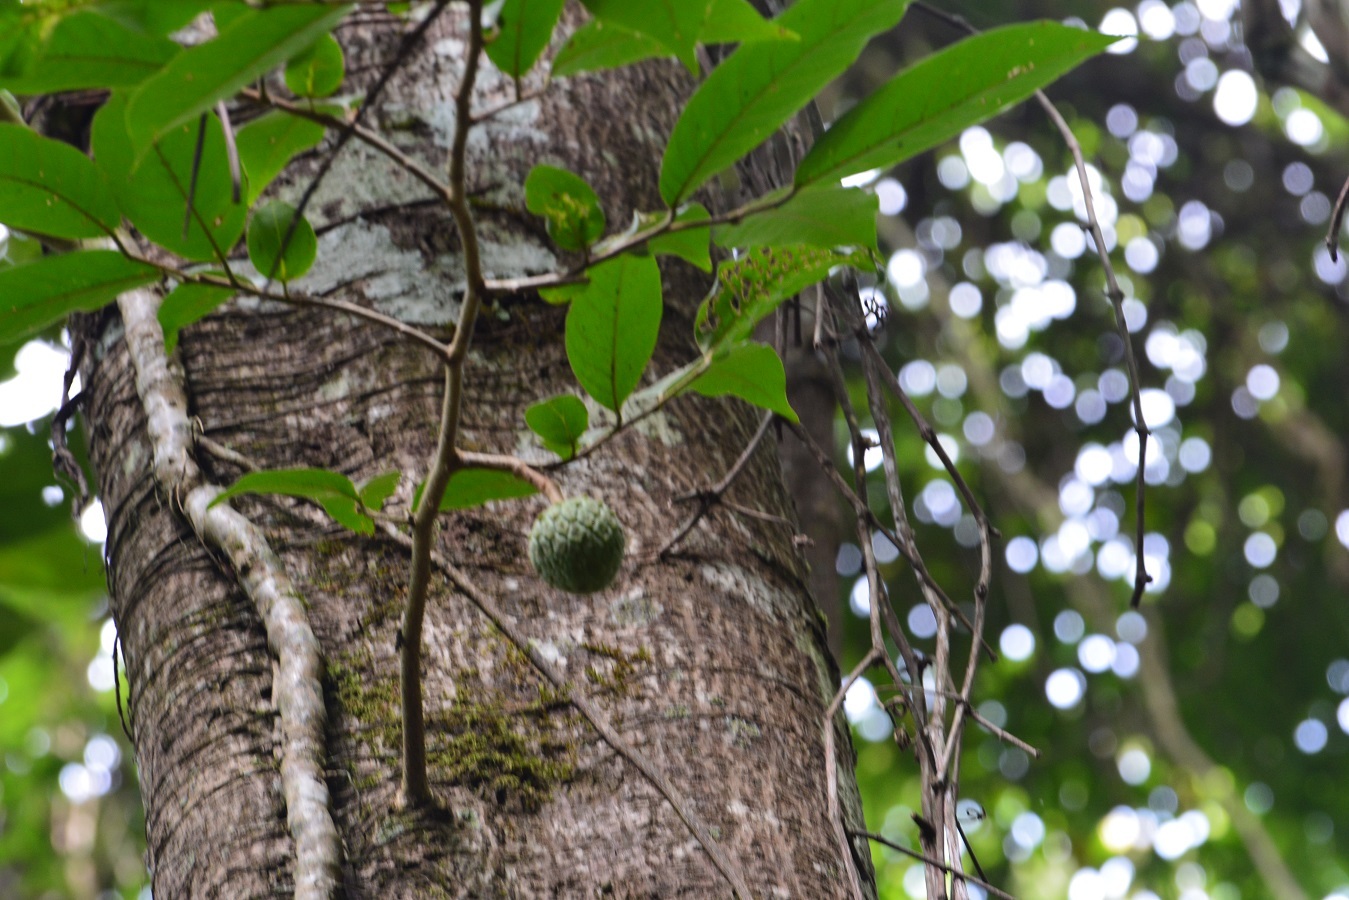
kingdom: Plantae
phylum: Tracheophyta
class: Magnoliopsida
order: Magnoliales
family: Annonaceae
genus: Annona
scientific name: Annona squamosa
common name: Custard-apple
